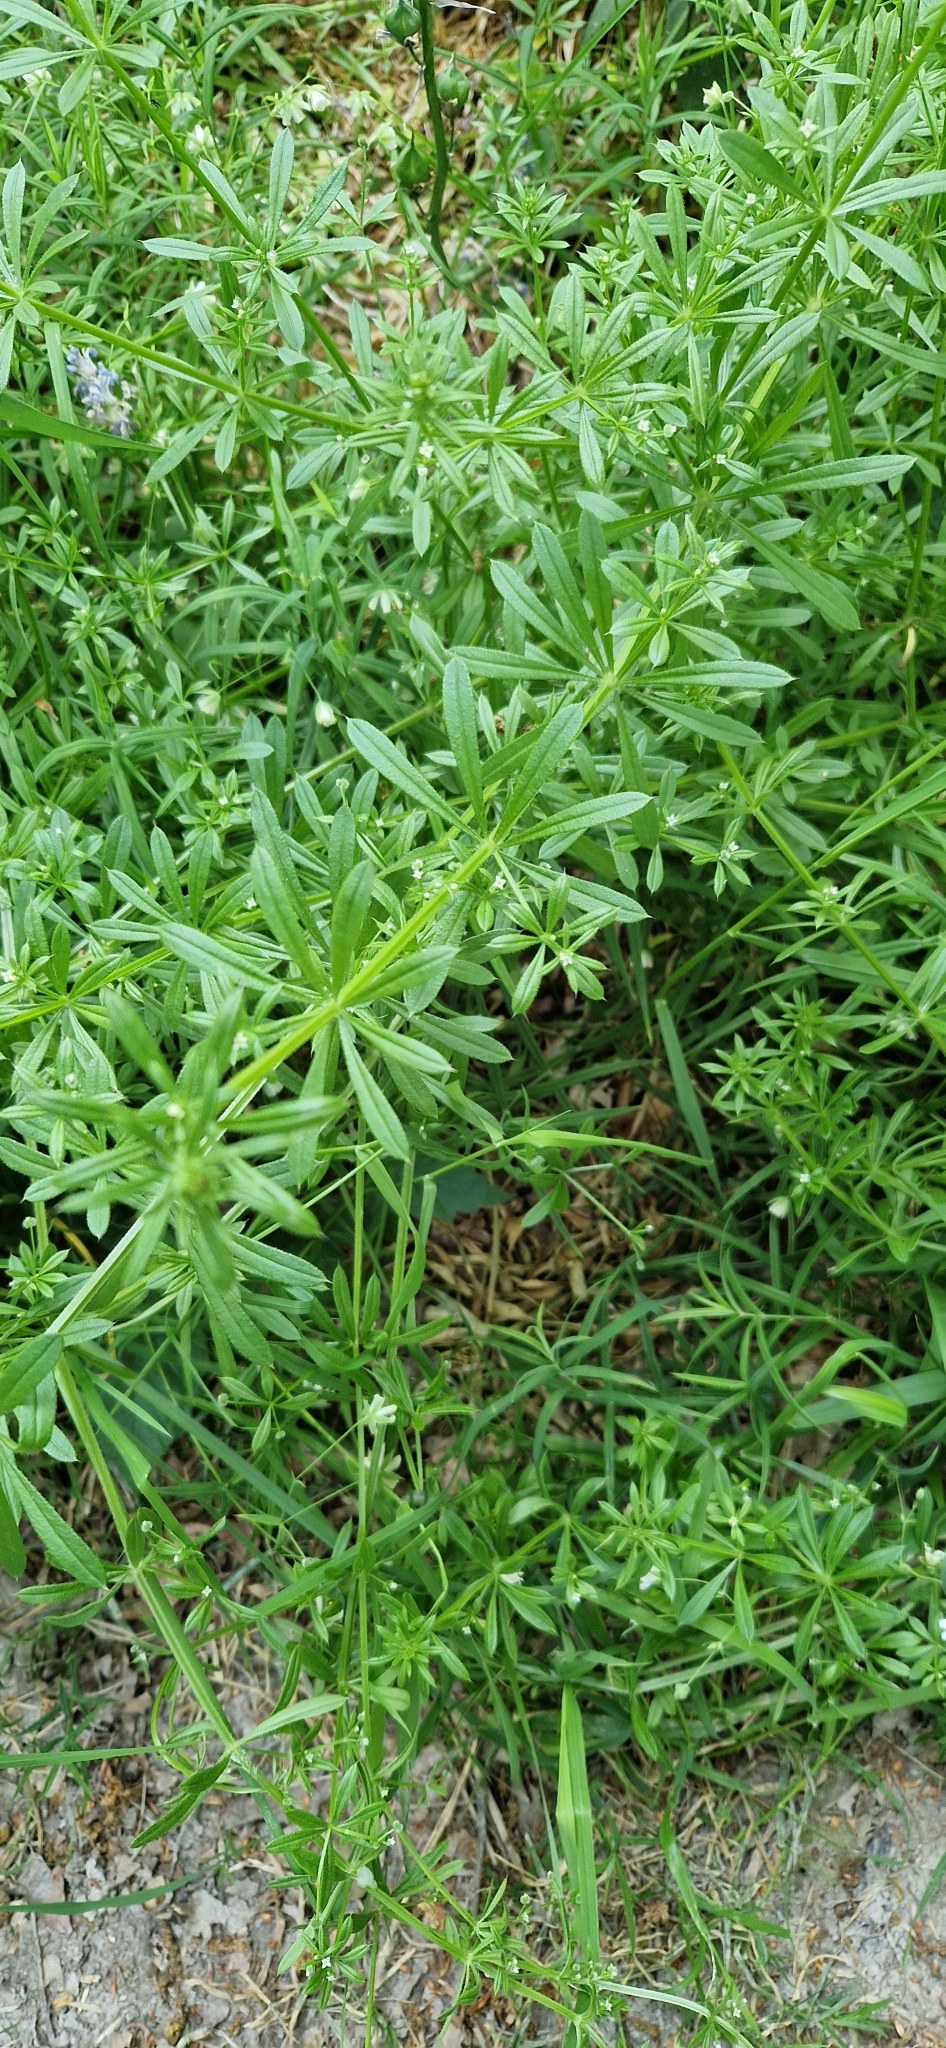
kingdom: Plantae
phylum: Tracheophyta
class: Magnoliopsida
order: Gentianales
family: Rubiaceae
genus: Galium
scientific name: Galium aparine
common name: Cleavers
